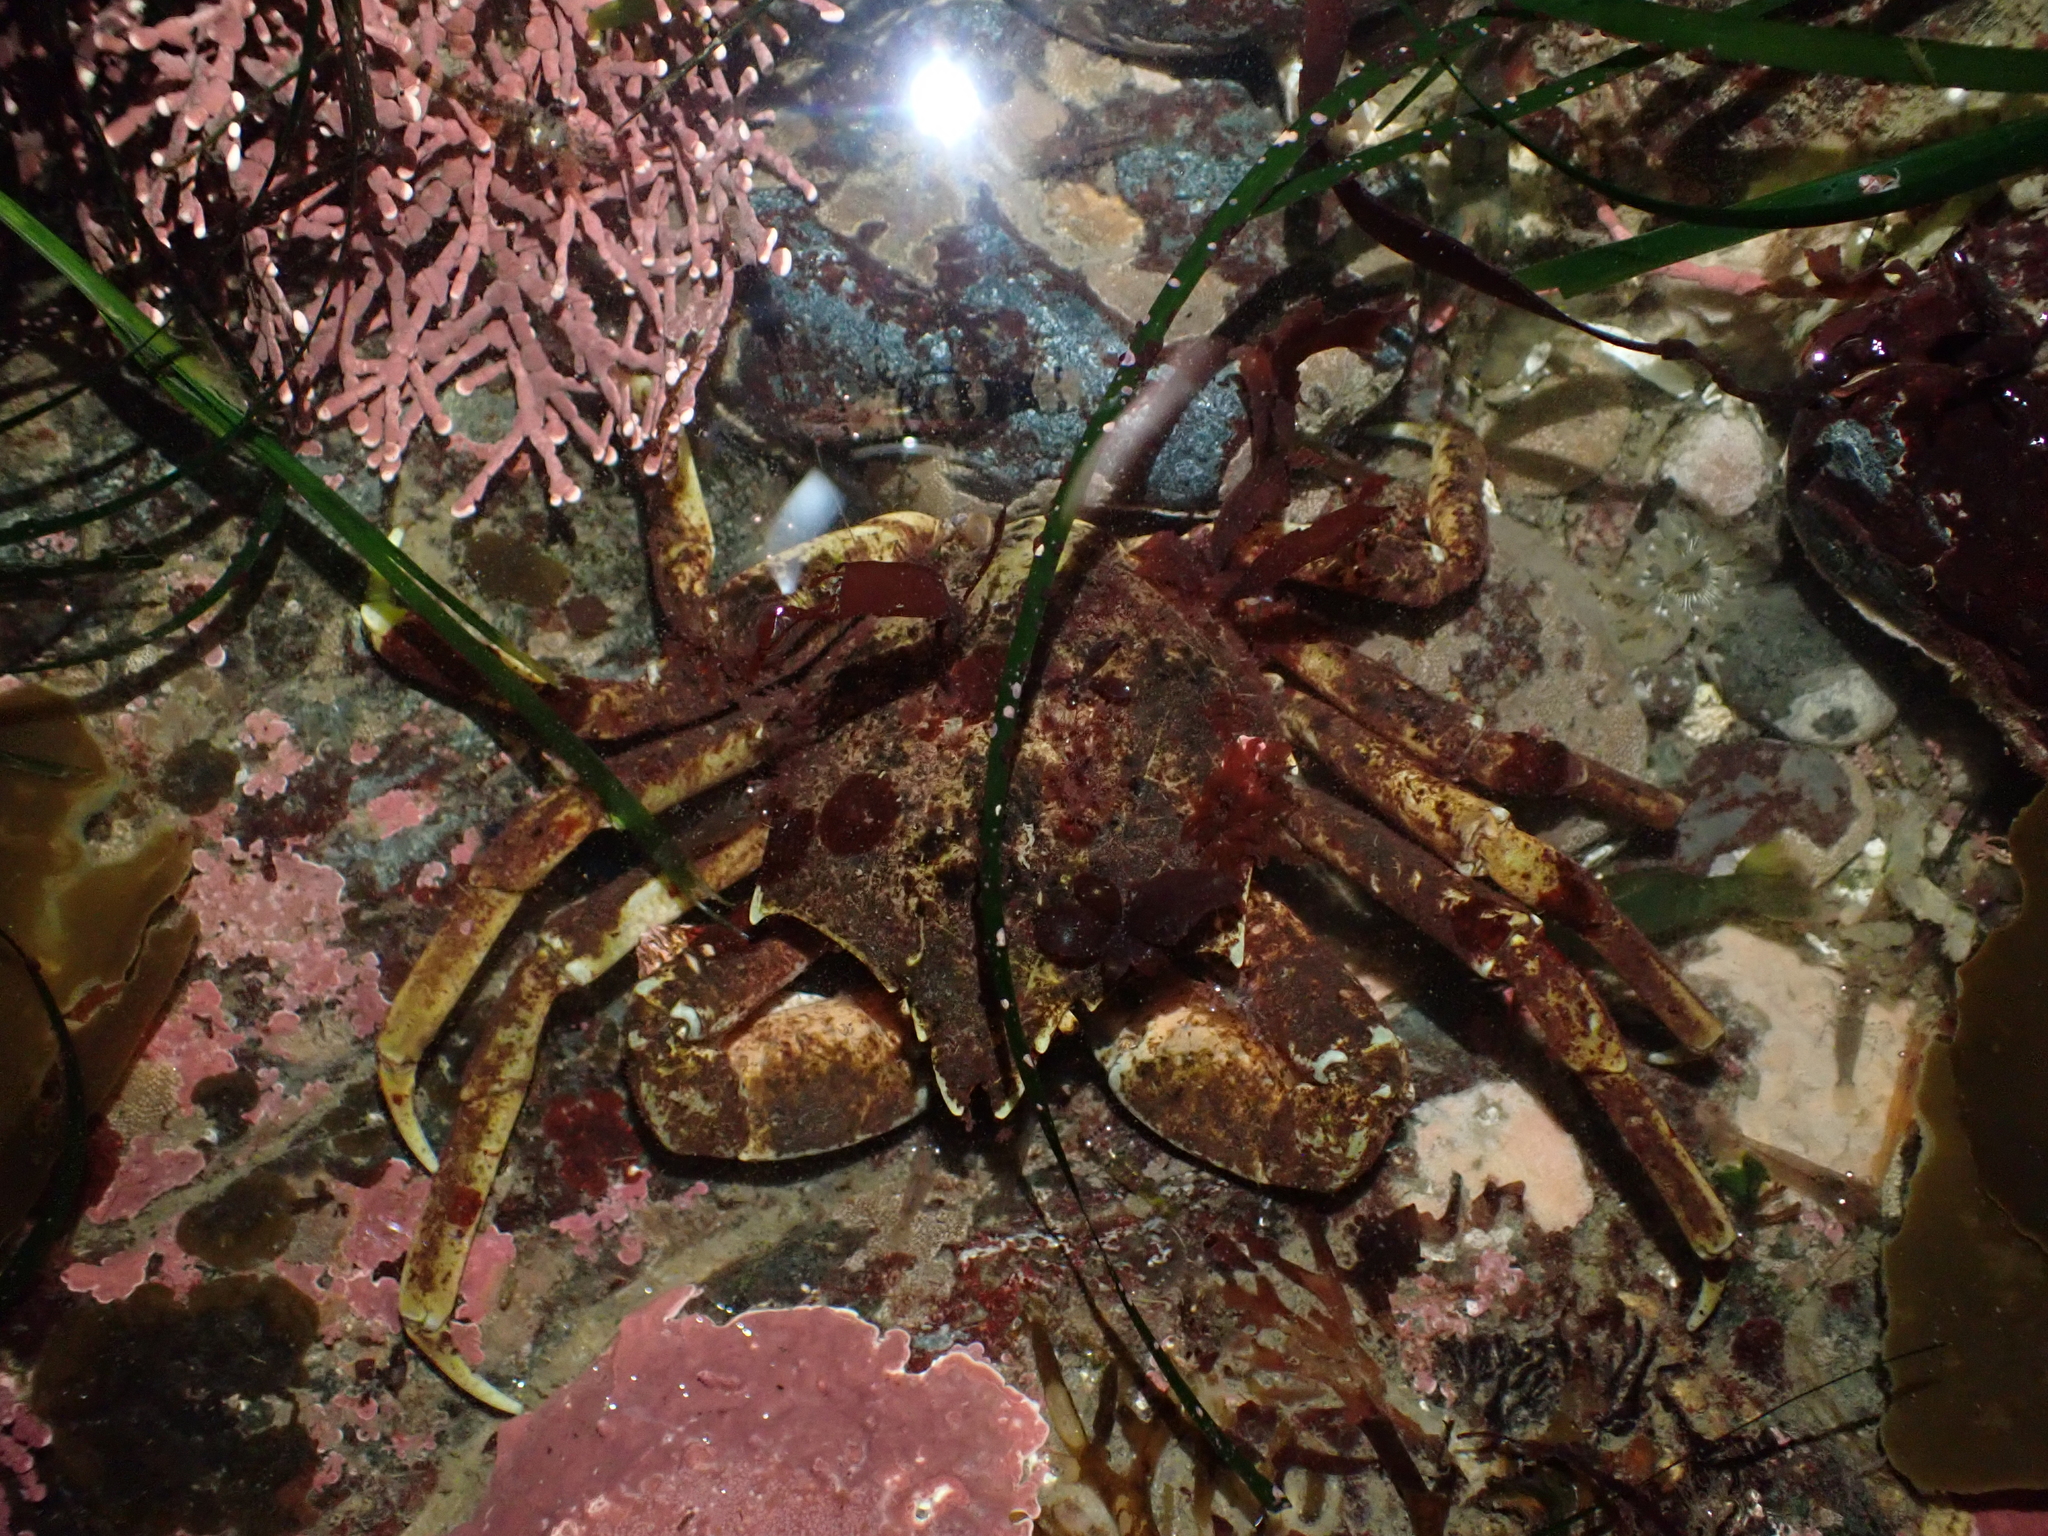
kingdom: Animalia
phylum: Arthropoda
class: Malacostraca
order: Decapoda
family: Epialtidae
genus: Pugettia
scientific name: Pugettia producta
